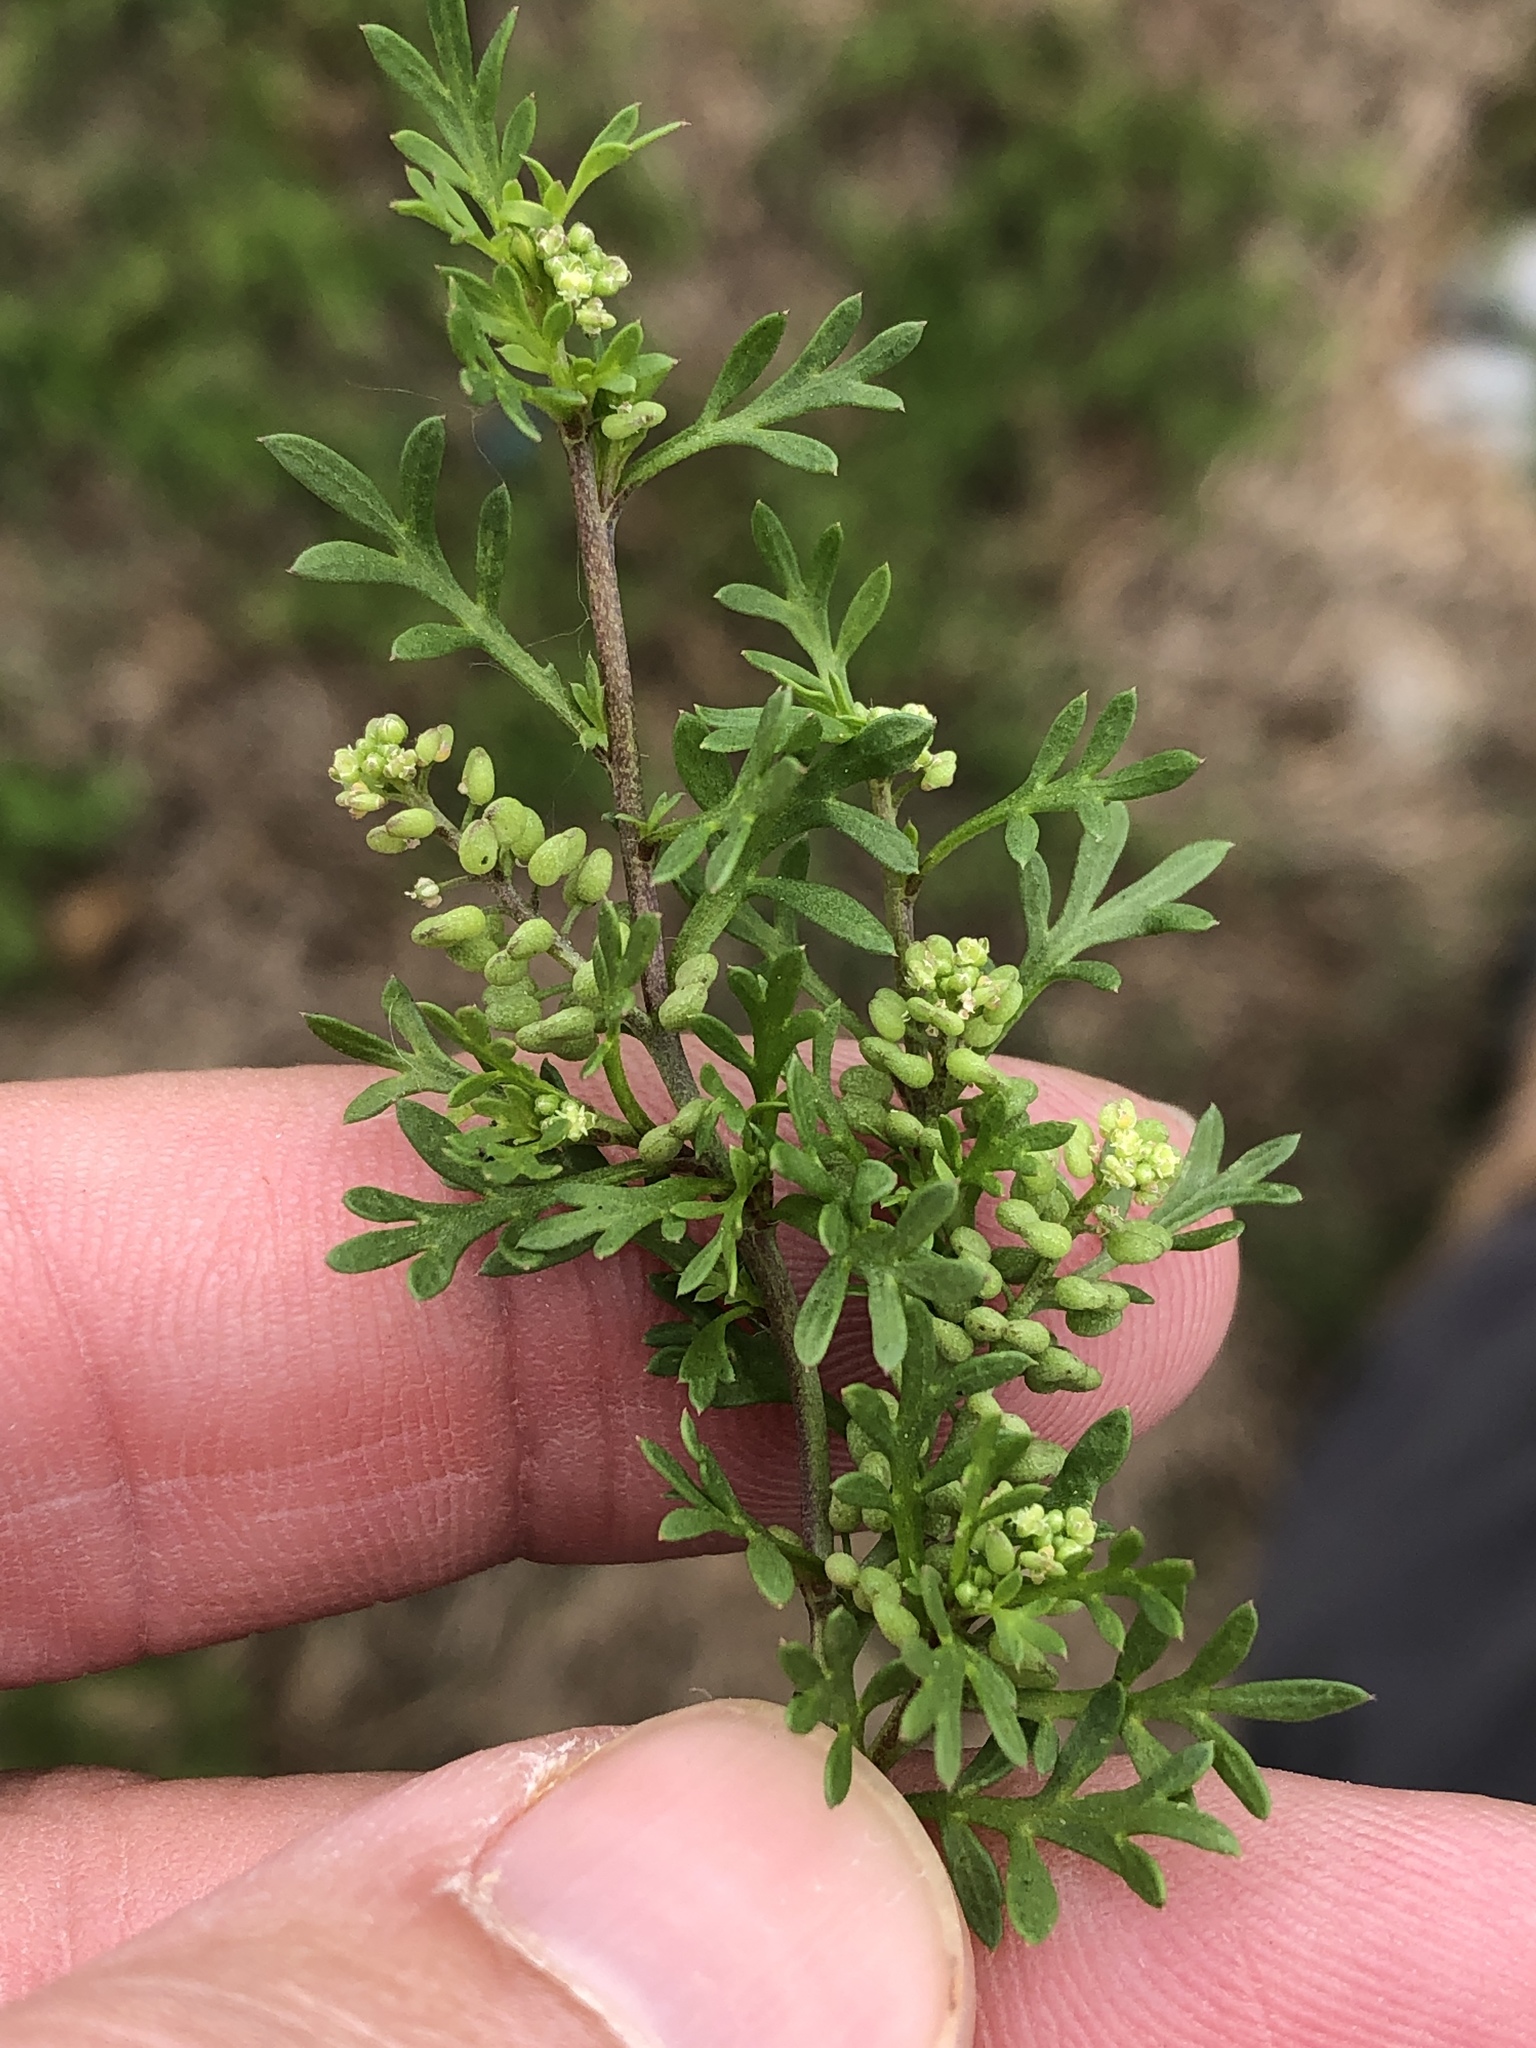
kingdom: Plantae
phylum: Tracheophyta
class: Magnoliopsida
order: Brassicales
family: Brassicaceae
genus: Lepidium
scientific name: Lepidium didymum
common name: Lesser swinecress
